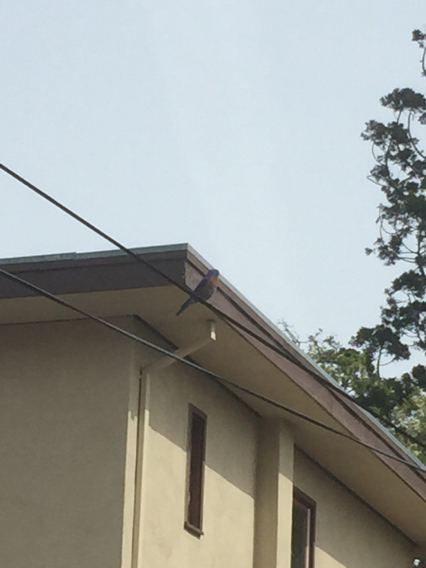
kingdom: Animalia
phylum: Chordata
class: Aves
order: Passeriformes
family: Turdidae
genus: Sialia
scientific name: Sialia mexicana
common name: Western bluebird
